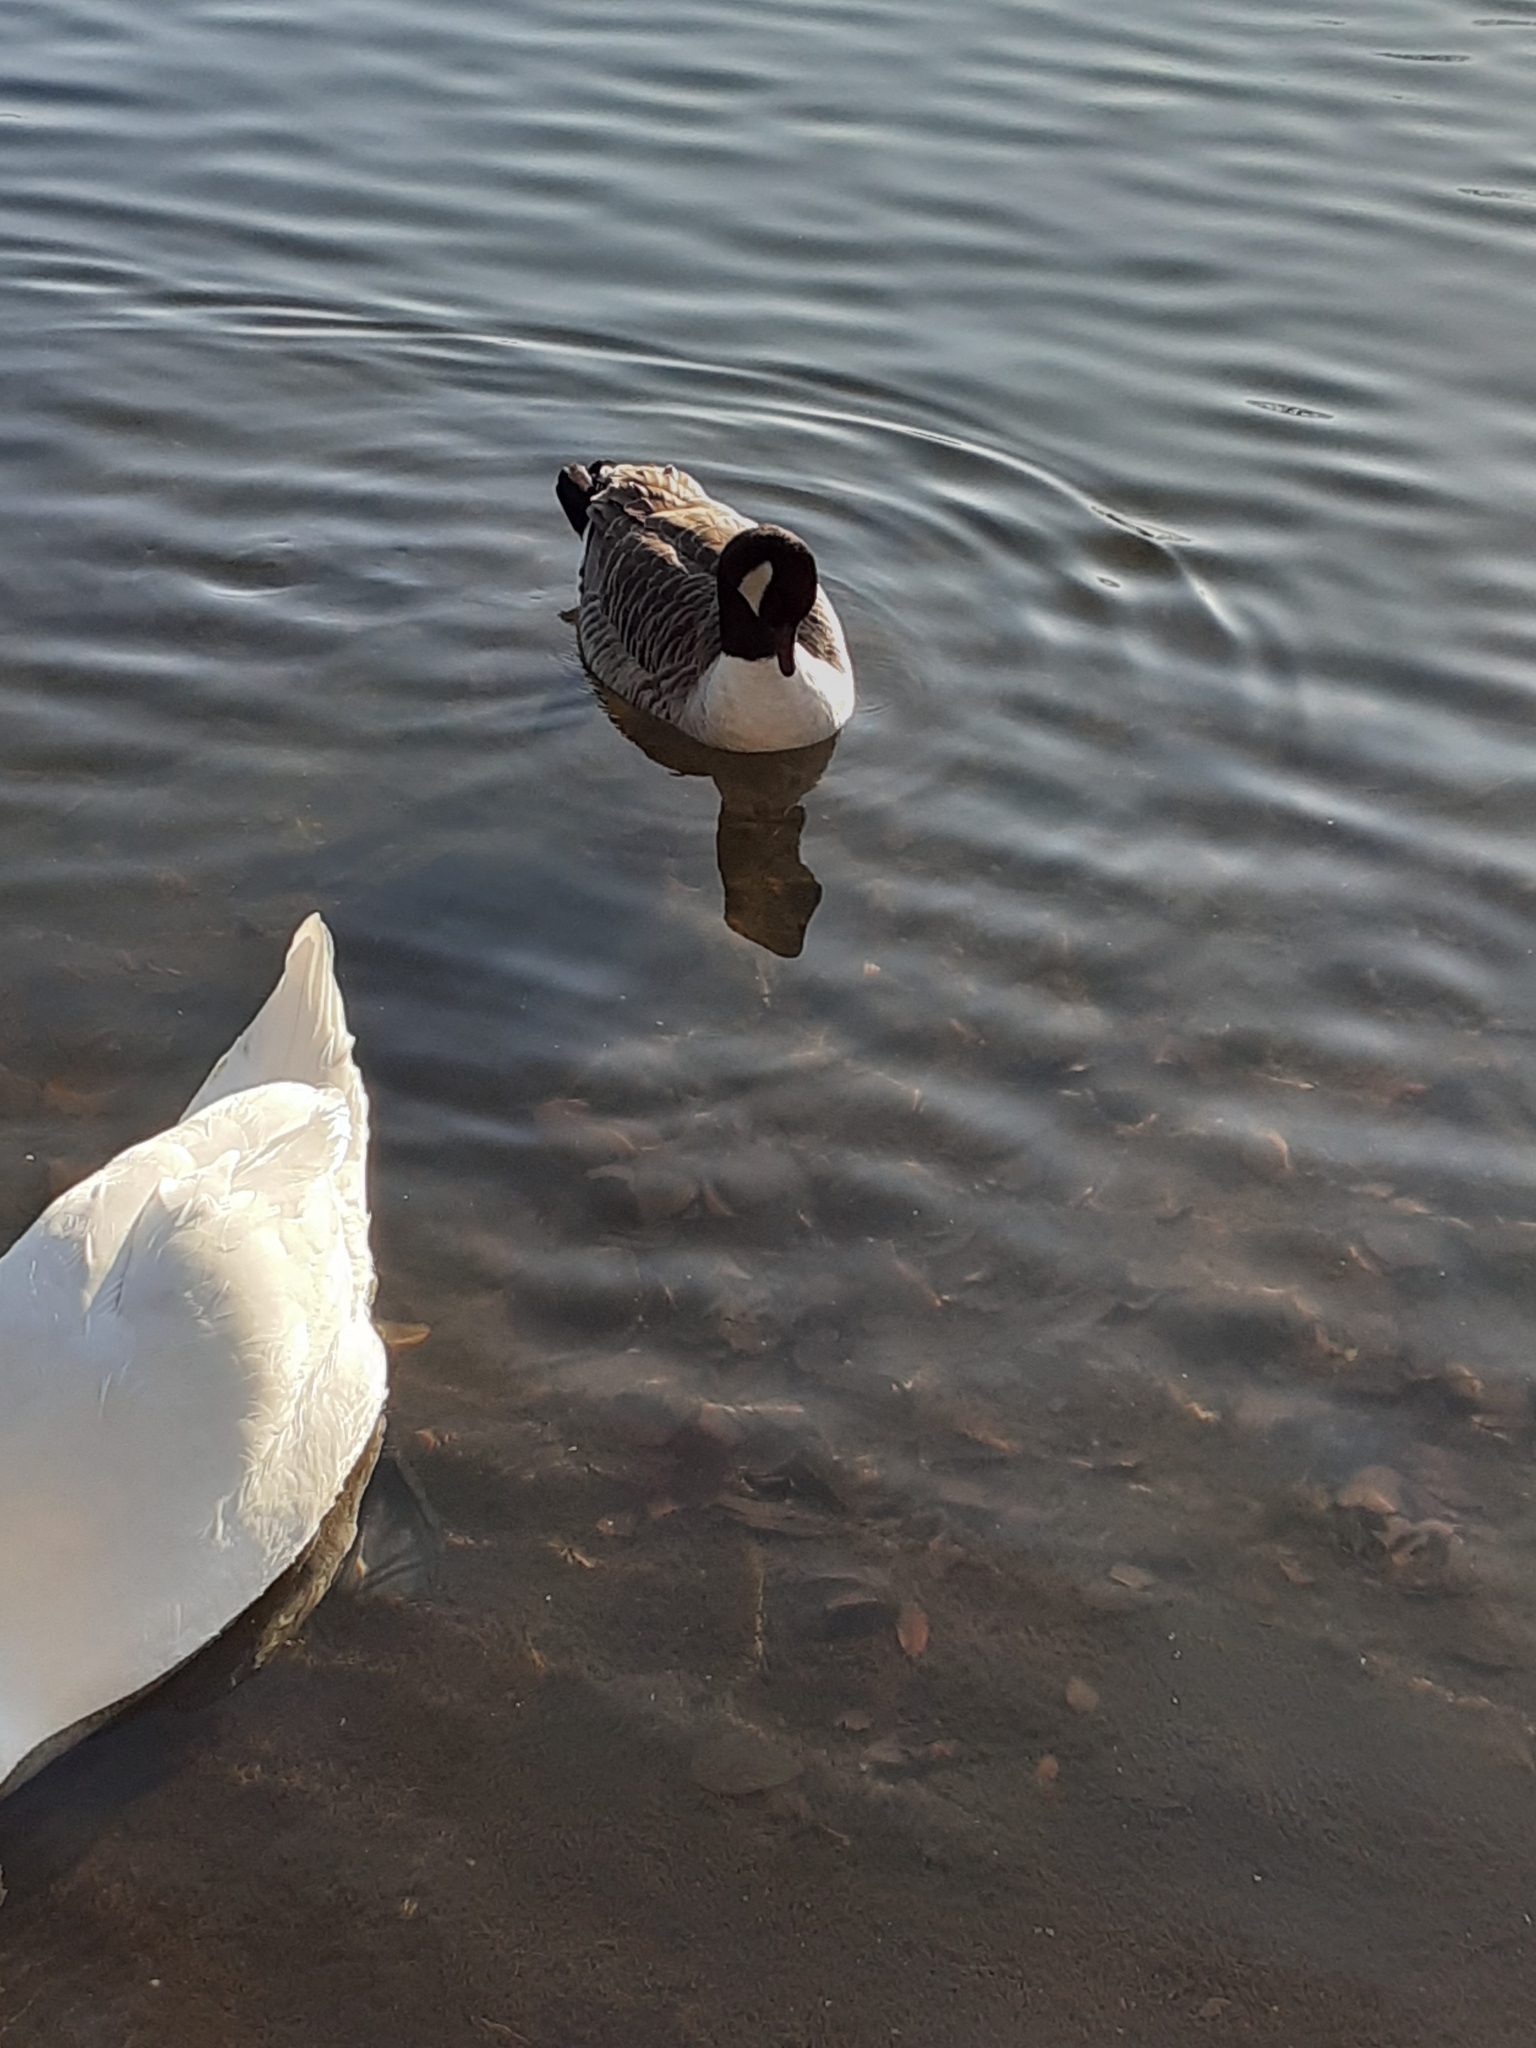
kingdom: Animalia
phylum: Chordata
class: Aves
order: Anseriformes
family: Anatidae
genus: Branta
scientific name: Branta canadensis
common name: Canada goose
